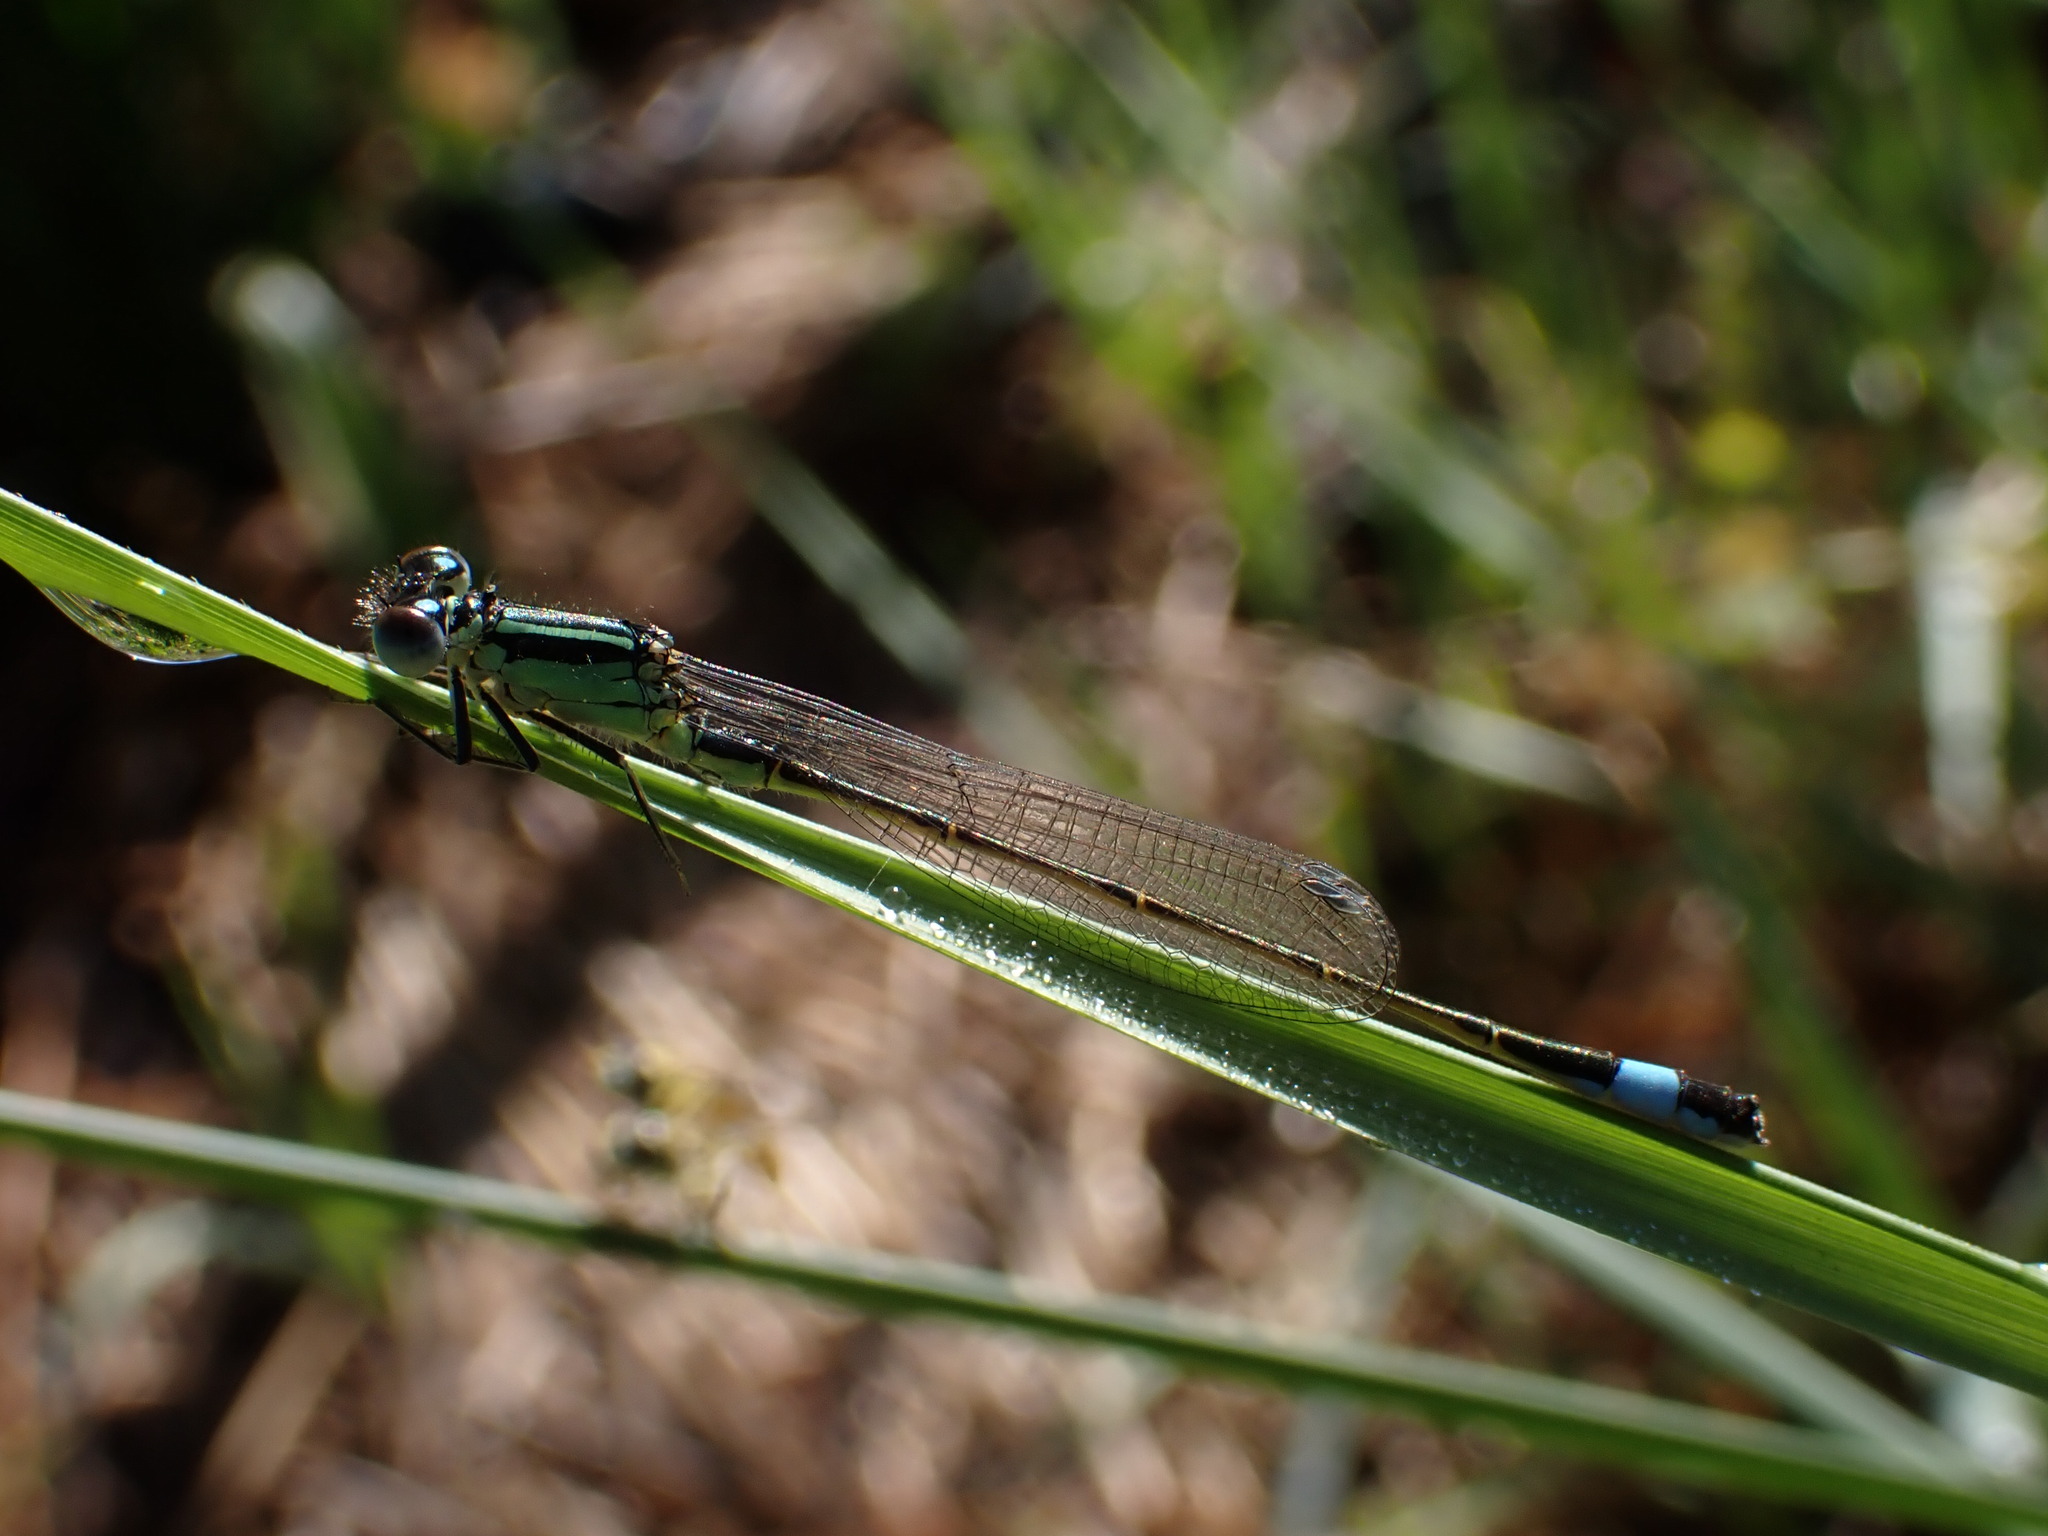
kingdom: Animalia
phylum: Arthropoda
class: Insecta
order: Odonata
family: Coenagrionidae
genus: Ischnura
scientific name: Ischnura elegans
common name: Blue-tailed damselfly
